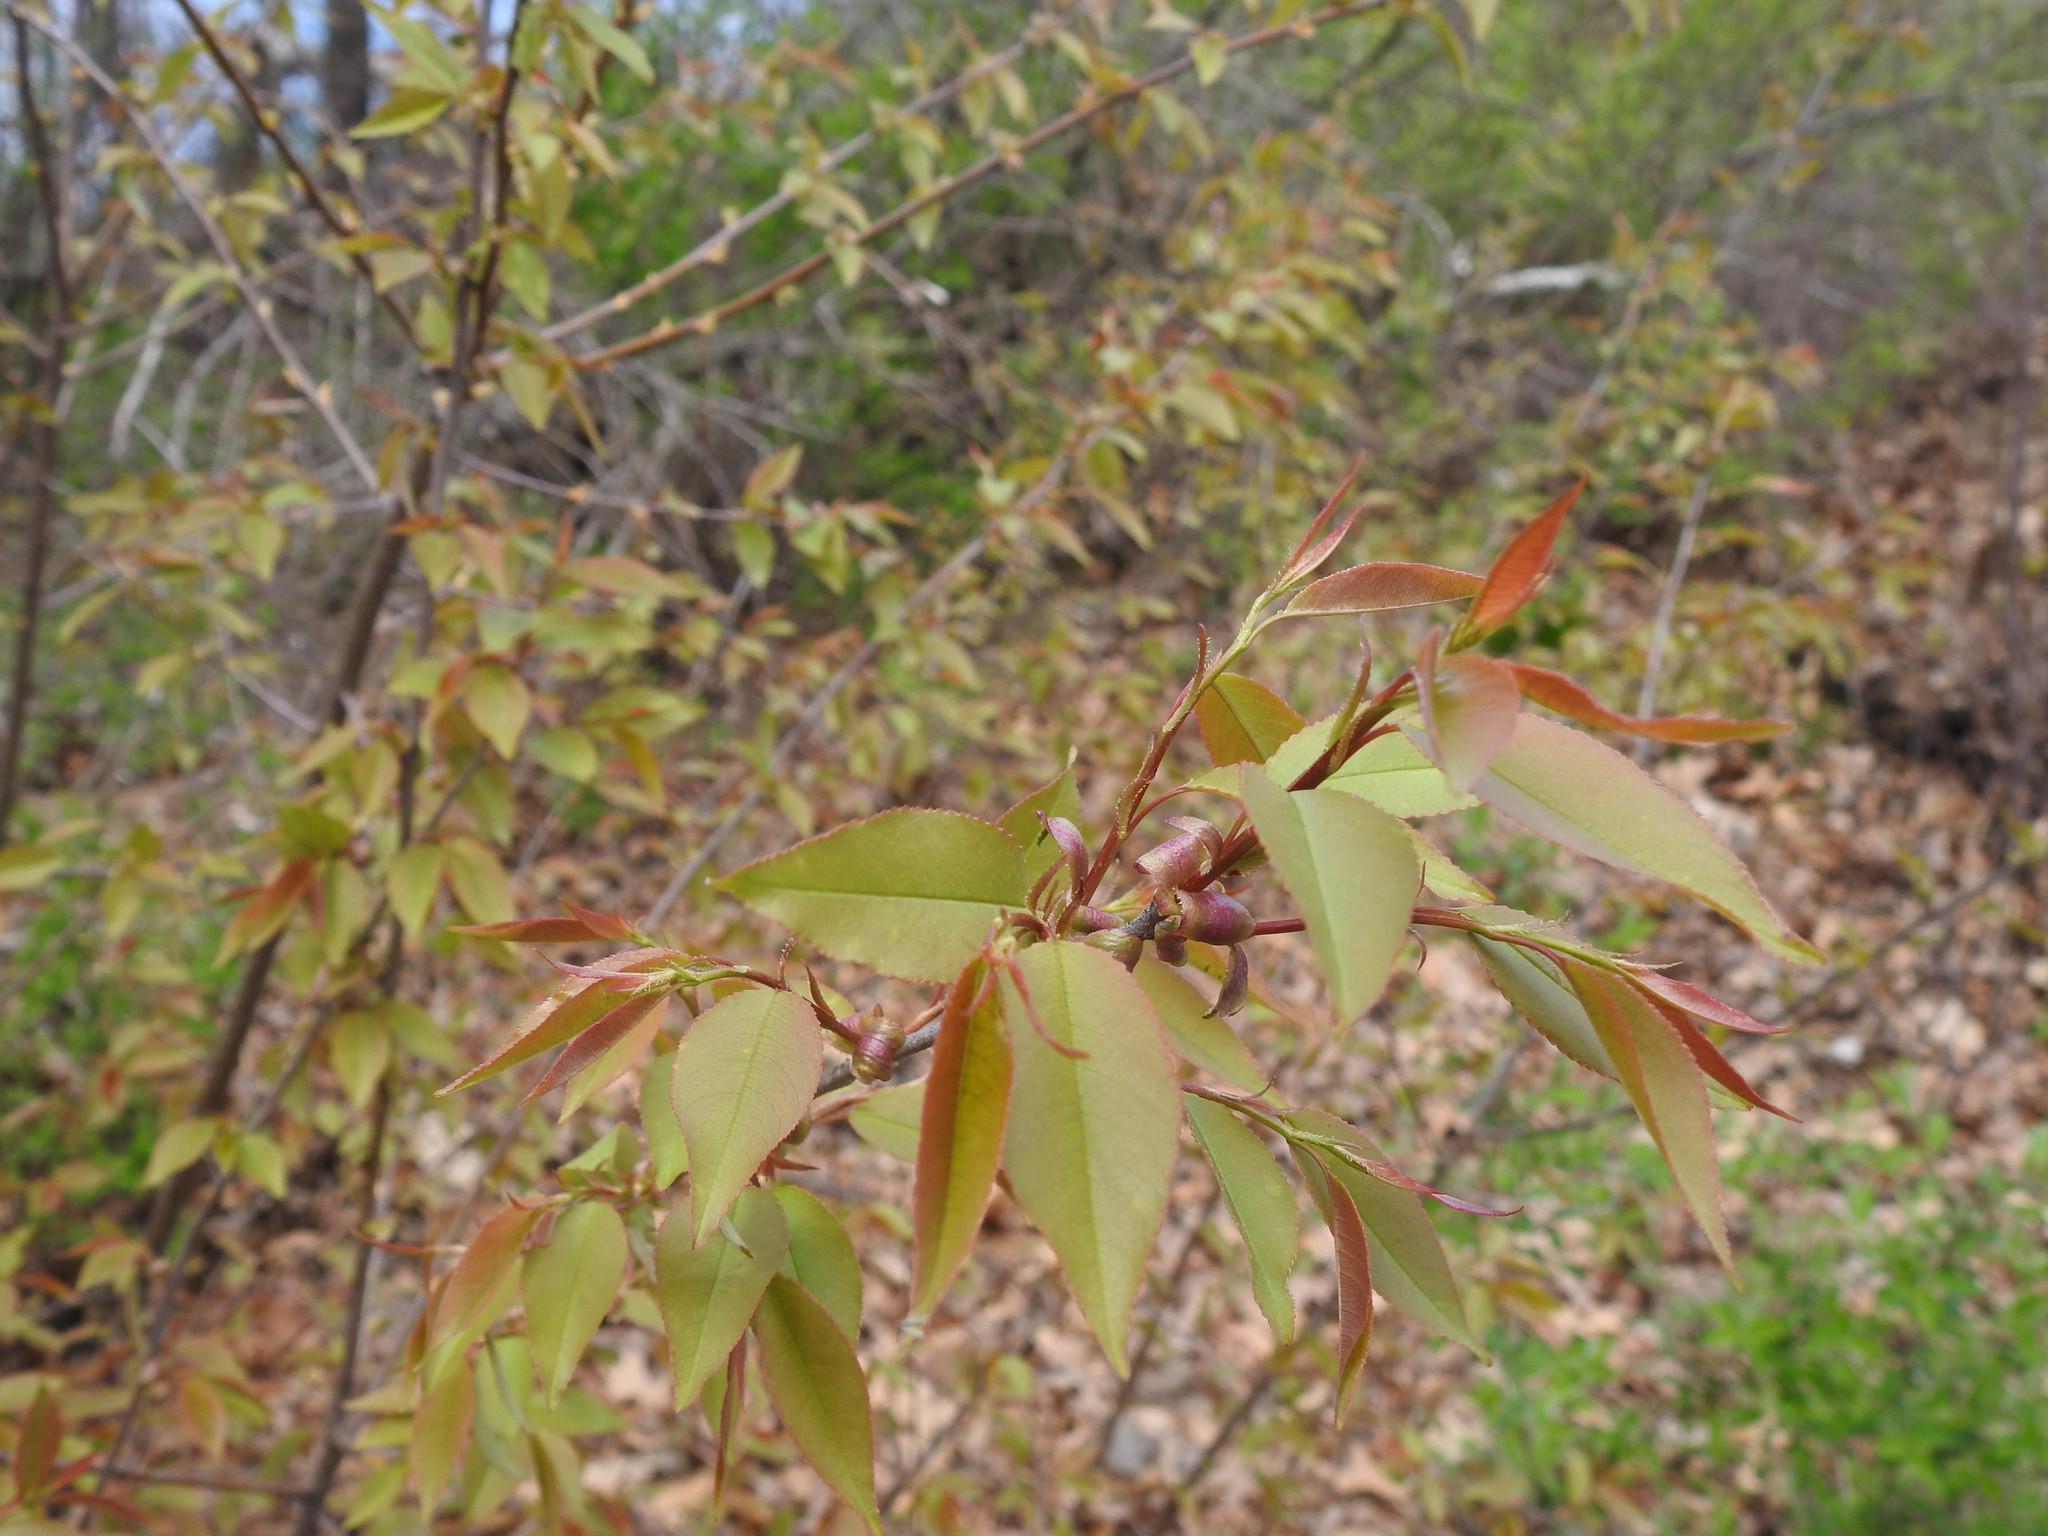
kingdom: Plantae
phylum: Tracheophyta
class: Magnoliopsida
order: Rosales
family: Rosaceae
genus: Prunus
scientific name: Prunus serotina
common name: Black cherry
